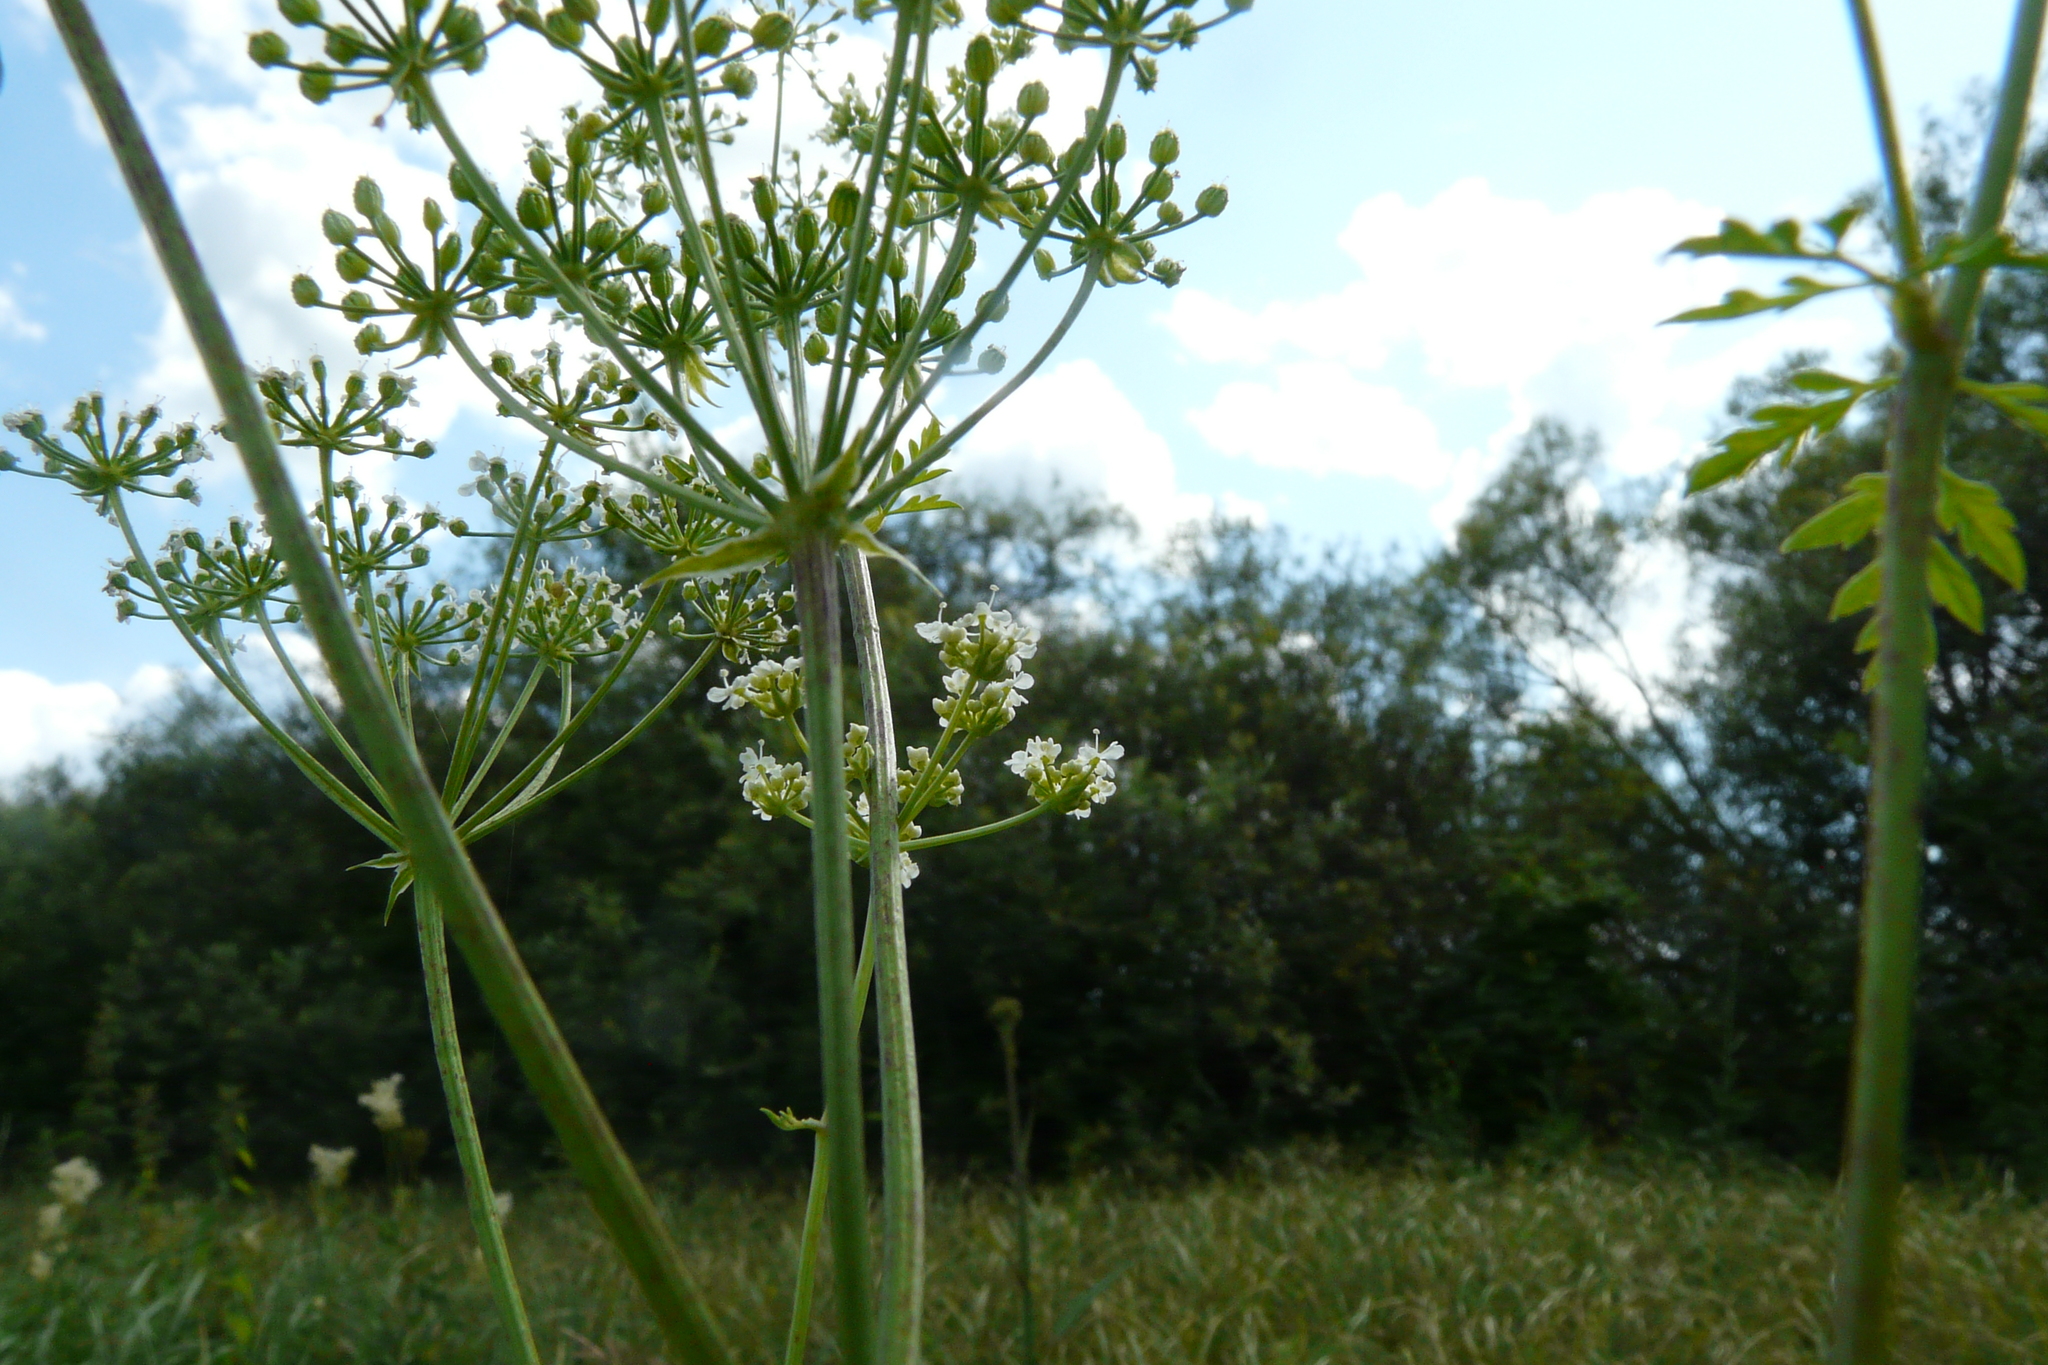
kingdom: Plantae
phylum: Tracheophyta
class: Magnoliopsida
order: Apiales
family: Apiaceae
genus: Conium
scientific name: Conium maculatum
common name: Hemlock
